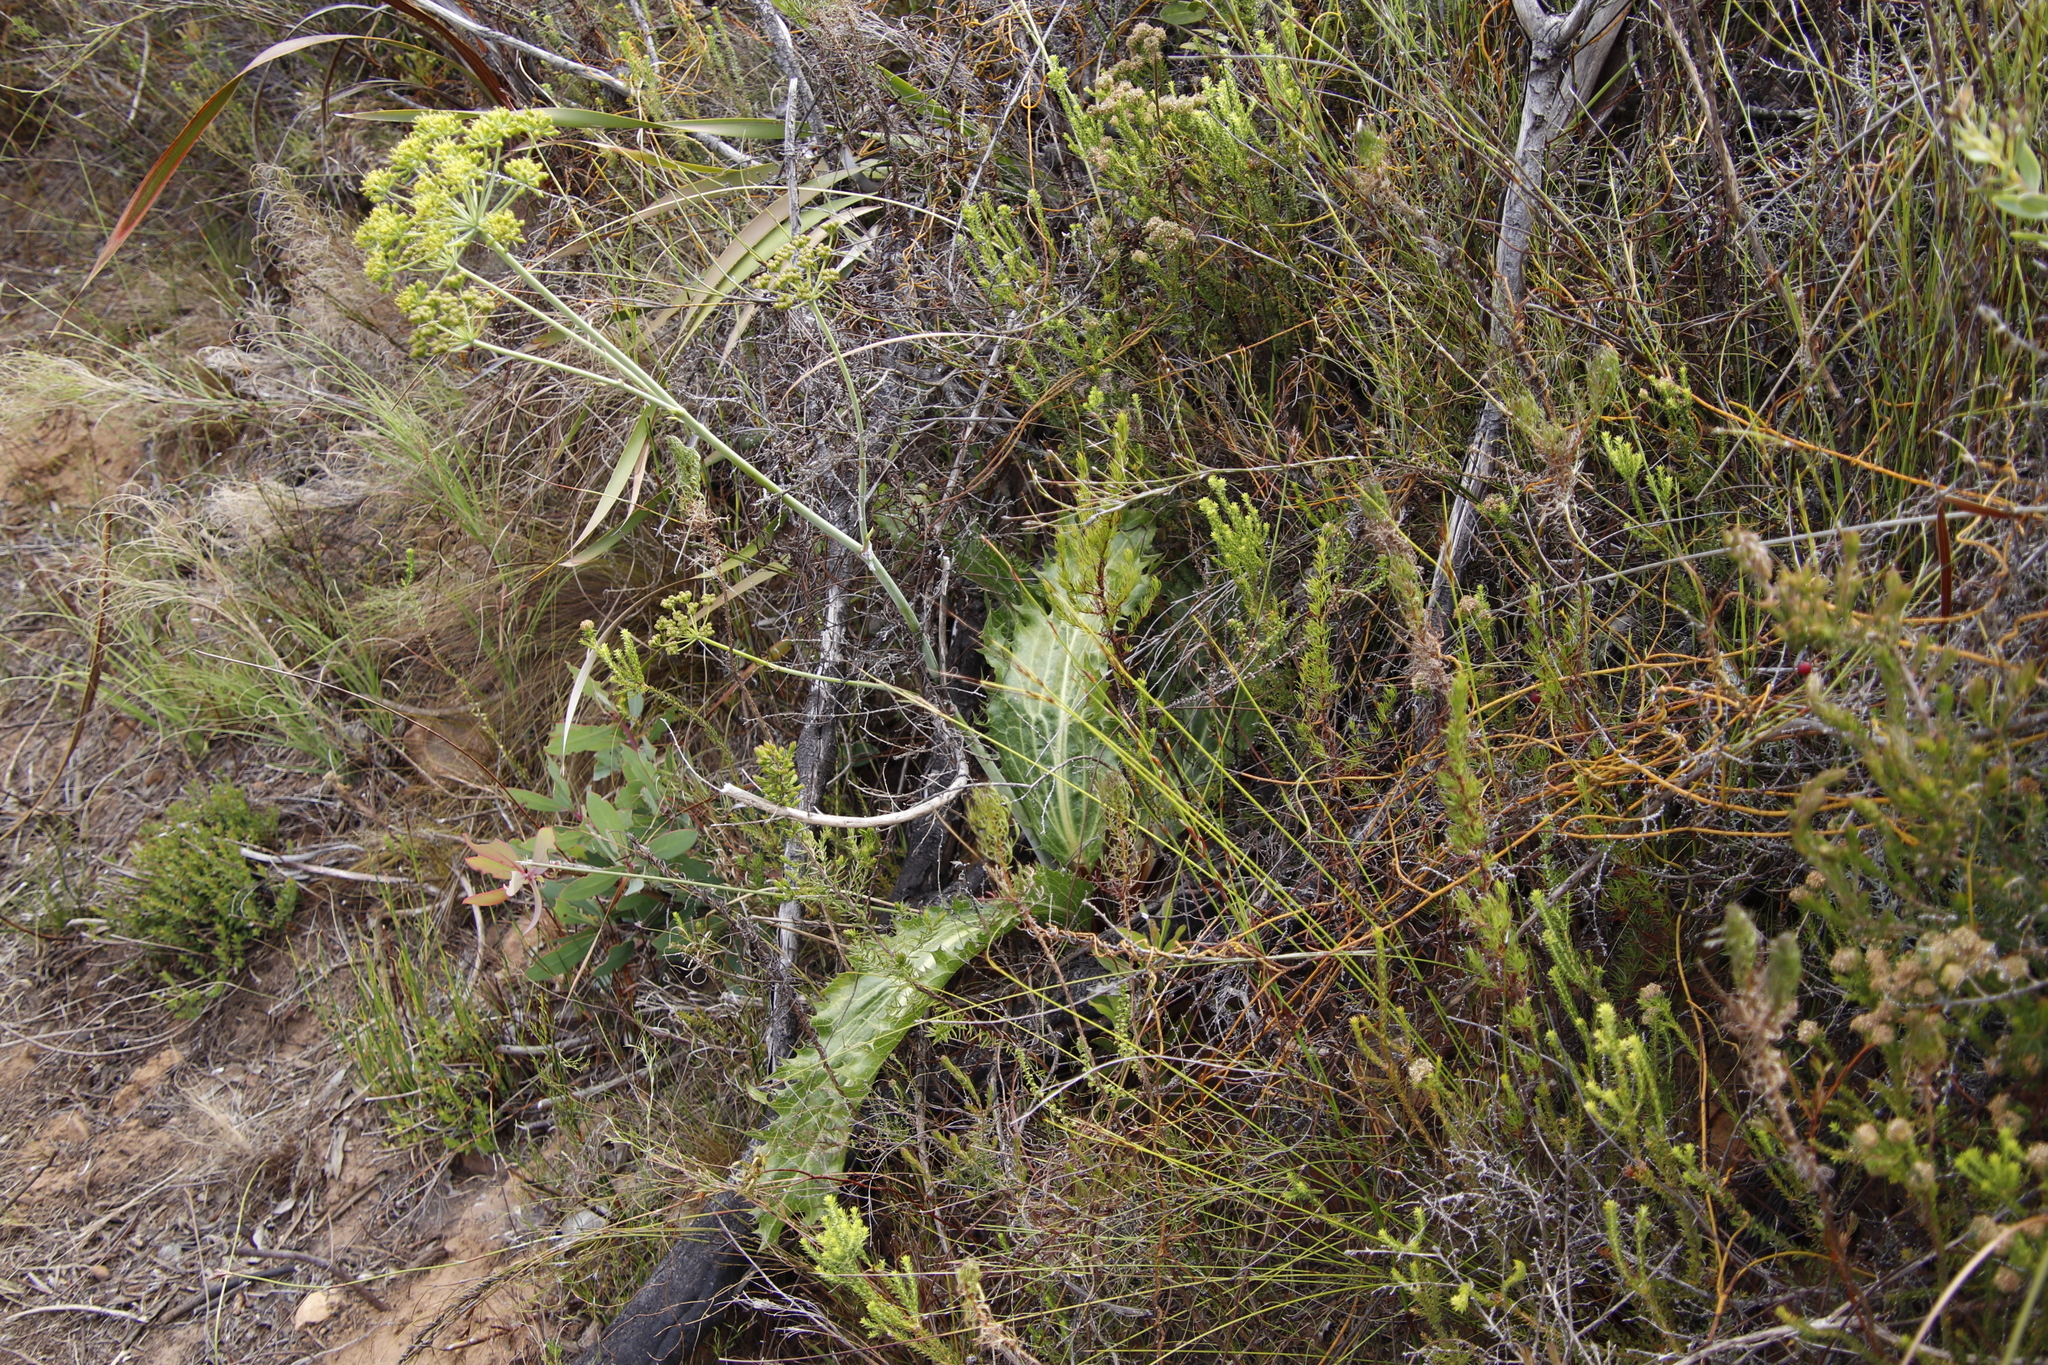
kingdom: Plantae
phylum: Tracheophyta
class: Magnoliopsida
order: Apiales
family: Apiaceae
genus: Lichtensteinia
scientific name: Lichtensteinia lacera
